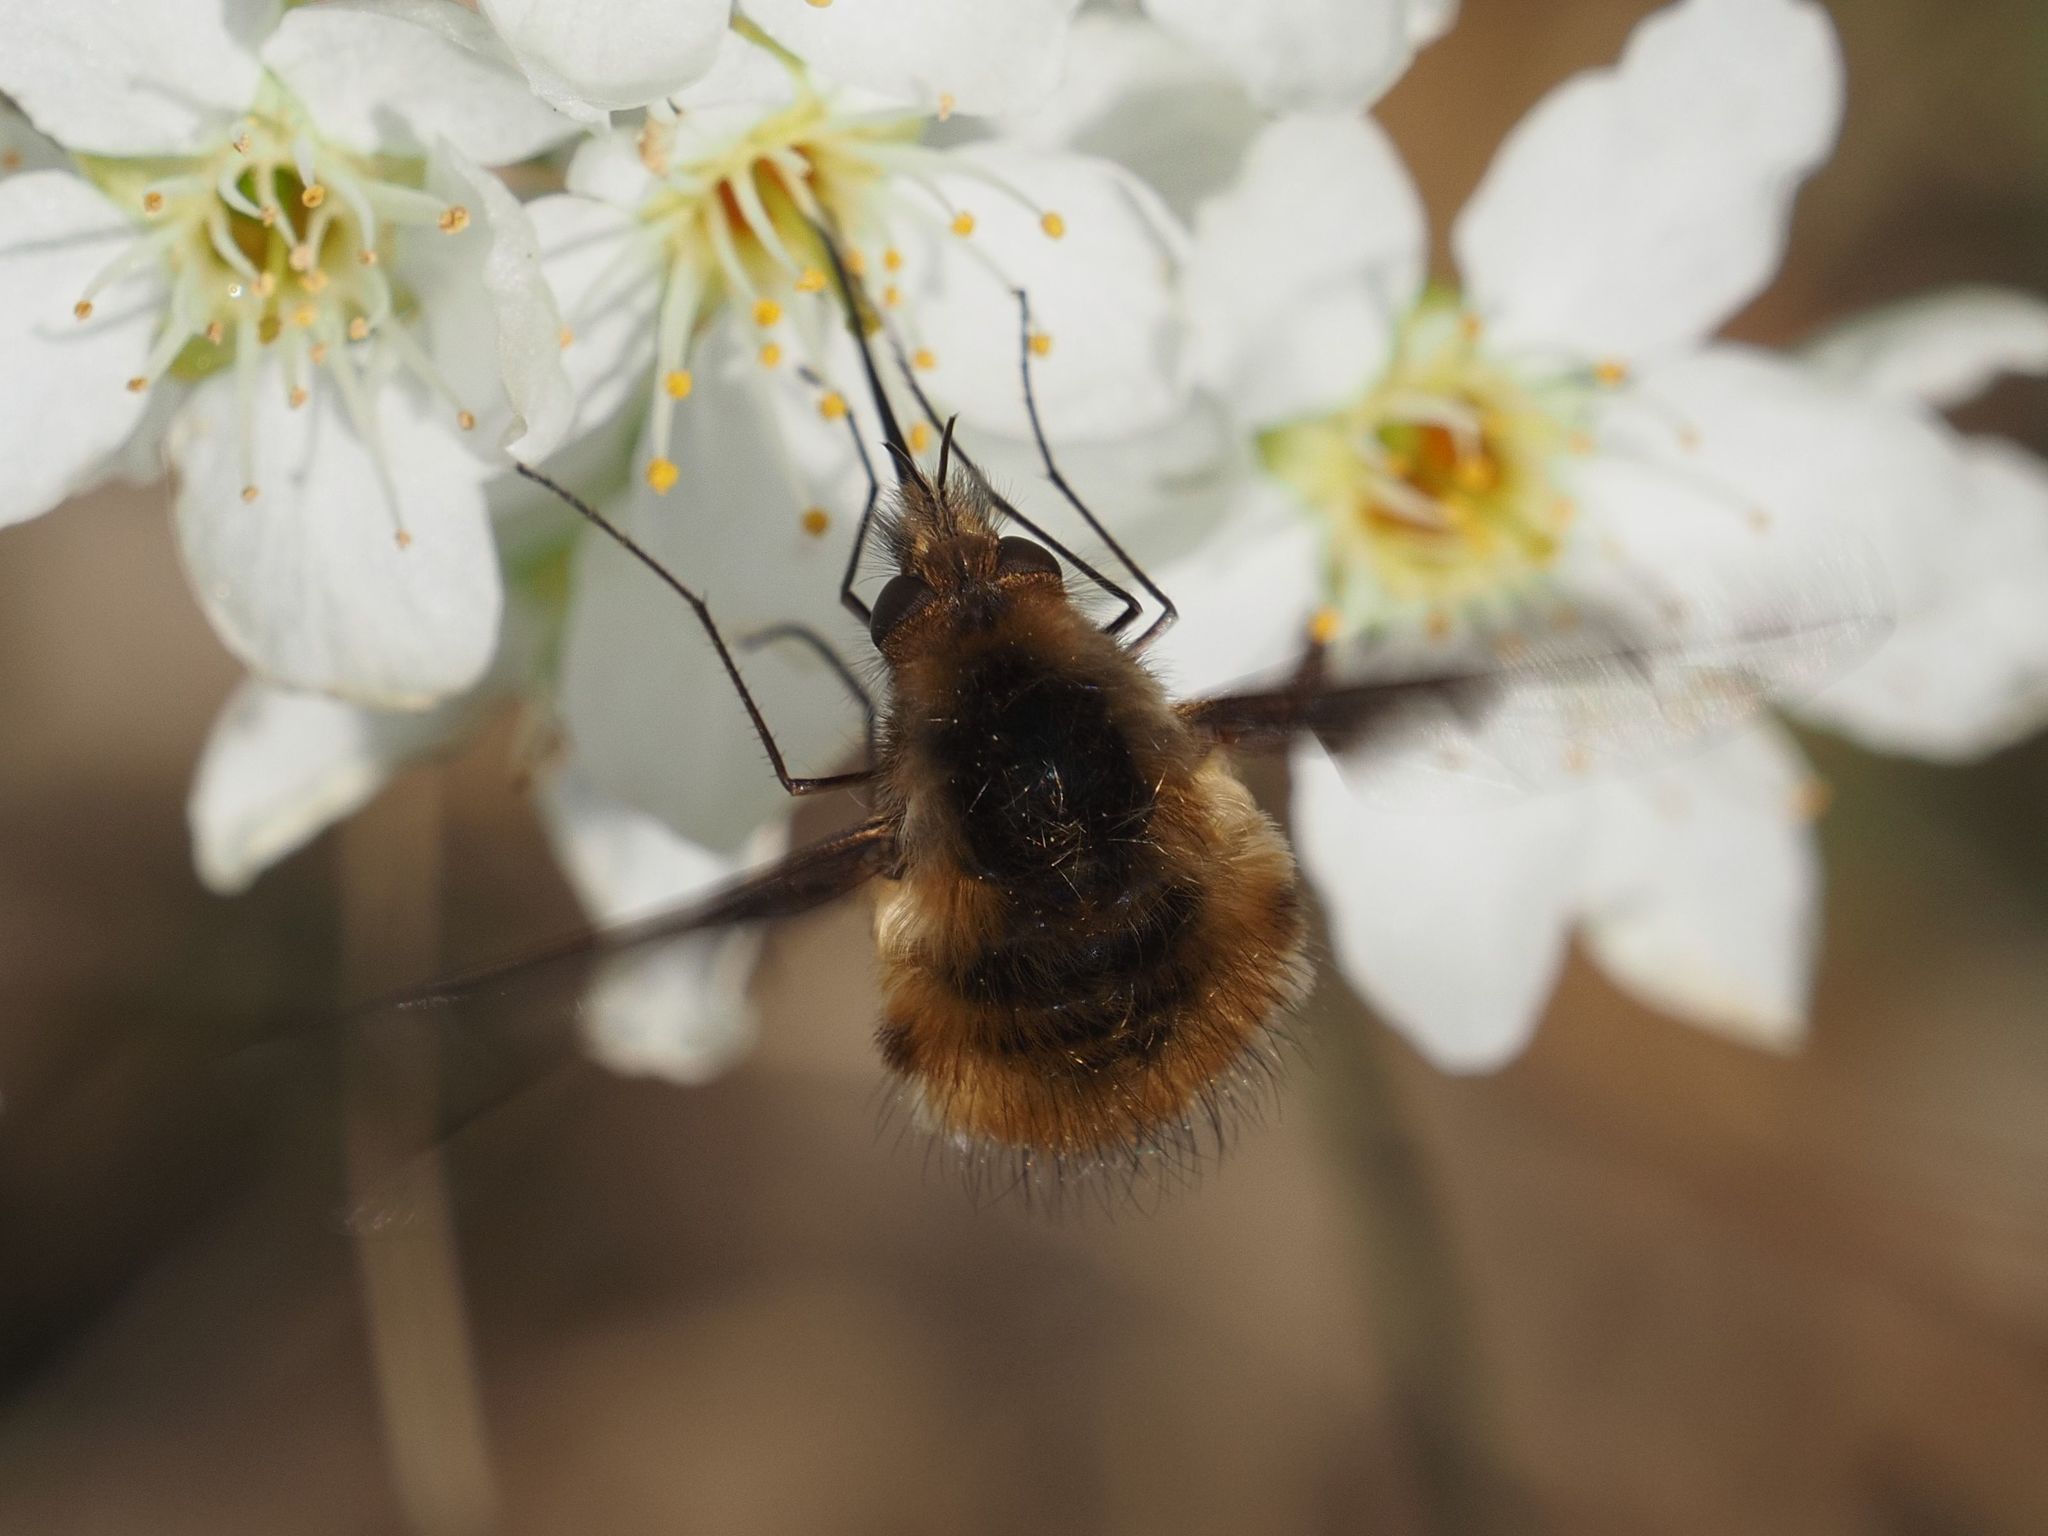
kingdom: Animalia
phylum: Arthropoda
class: Insecta
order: Diptera
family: Bombyliidae
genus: Bombylius
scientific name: Bombylius major
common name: Bee fly
